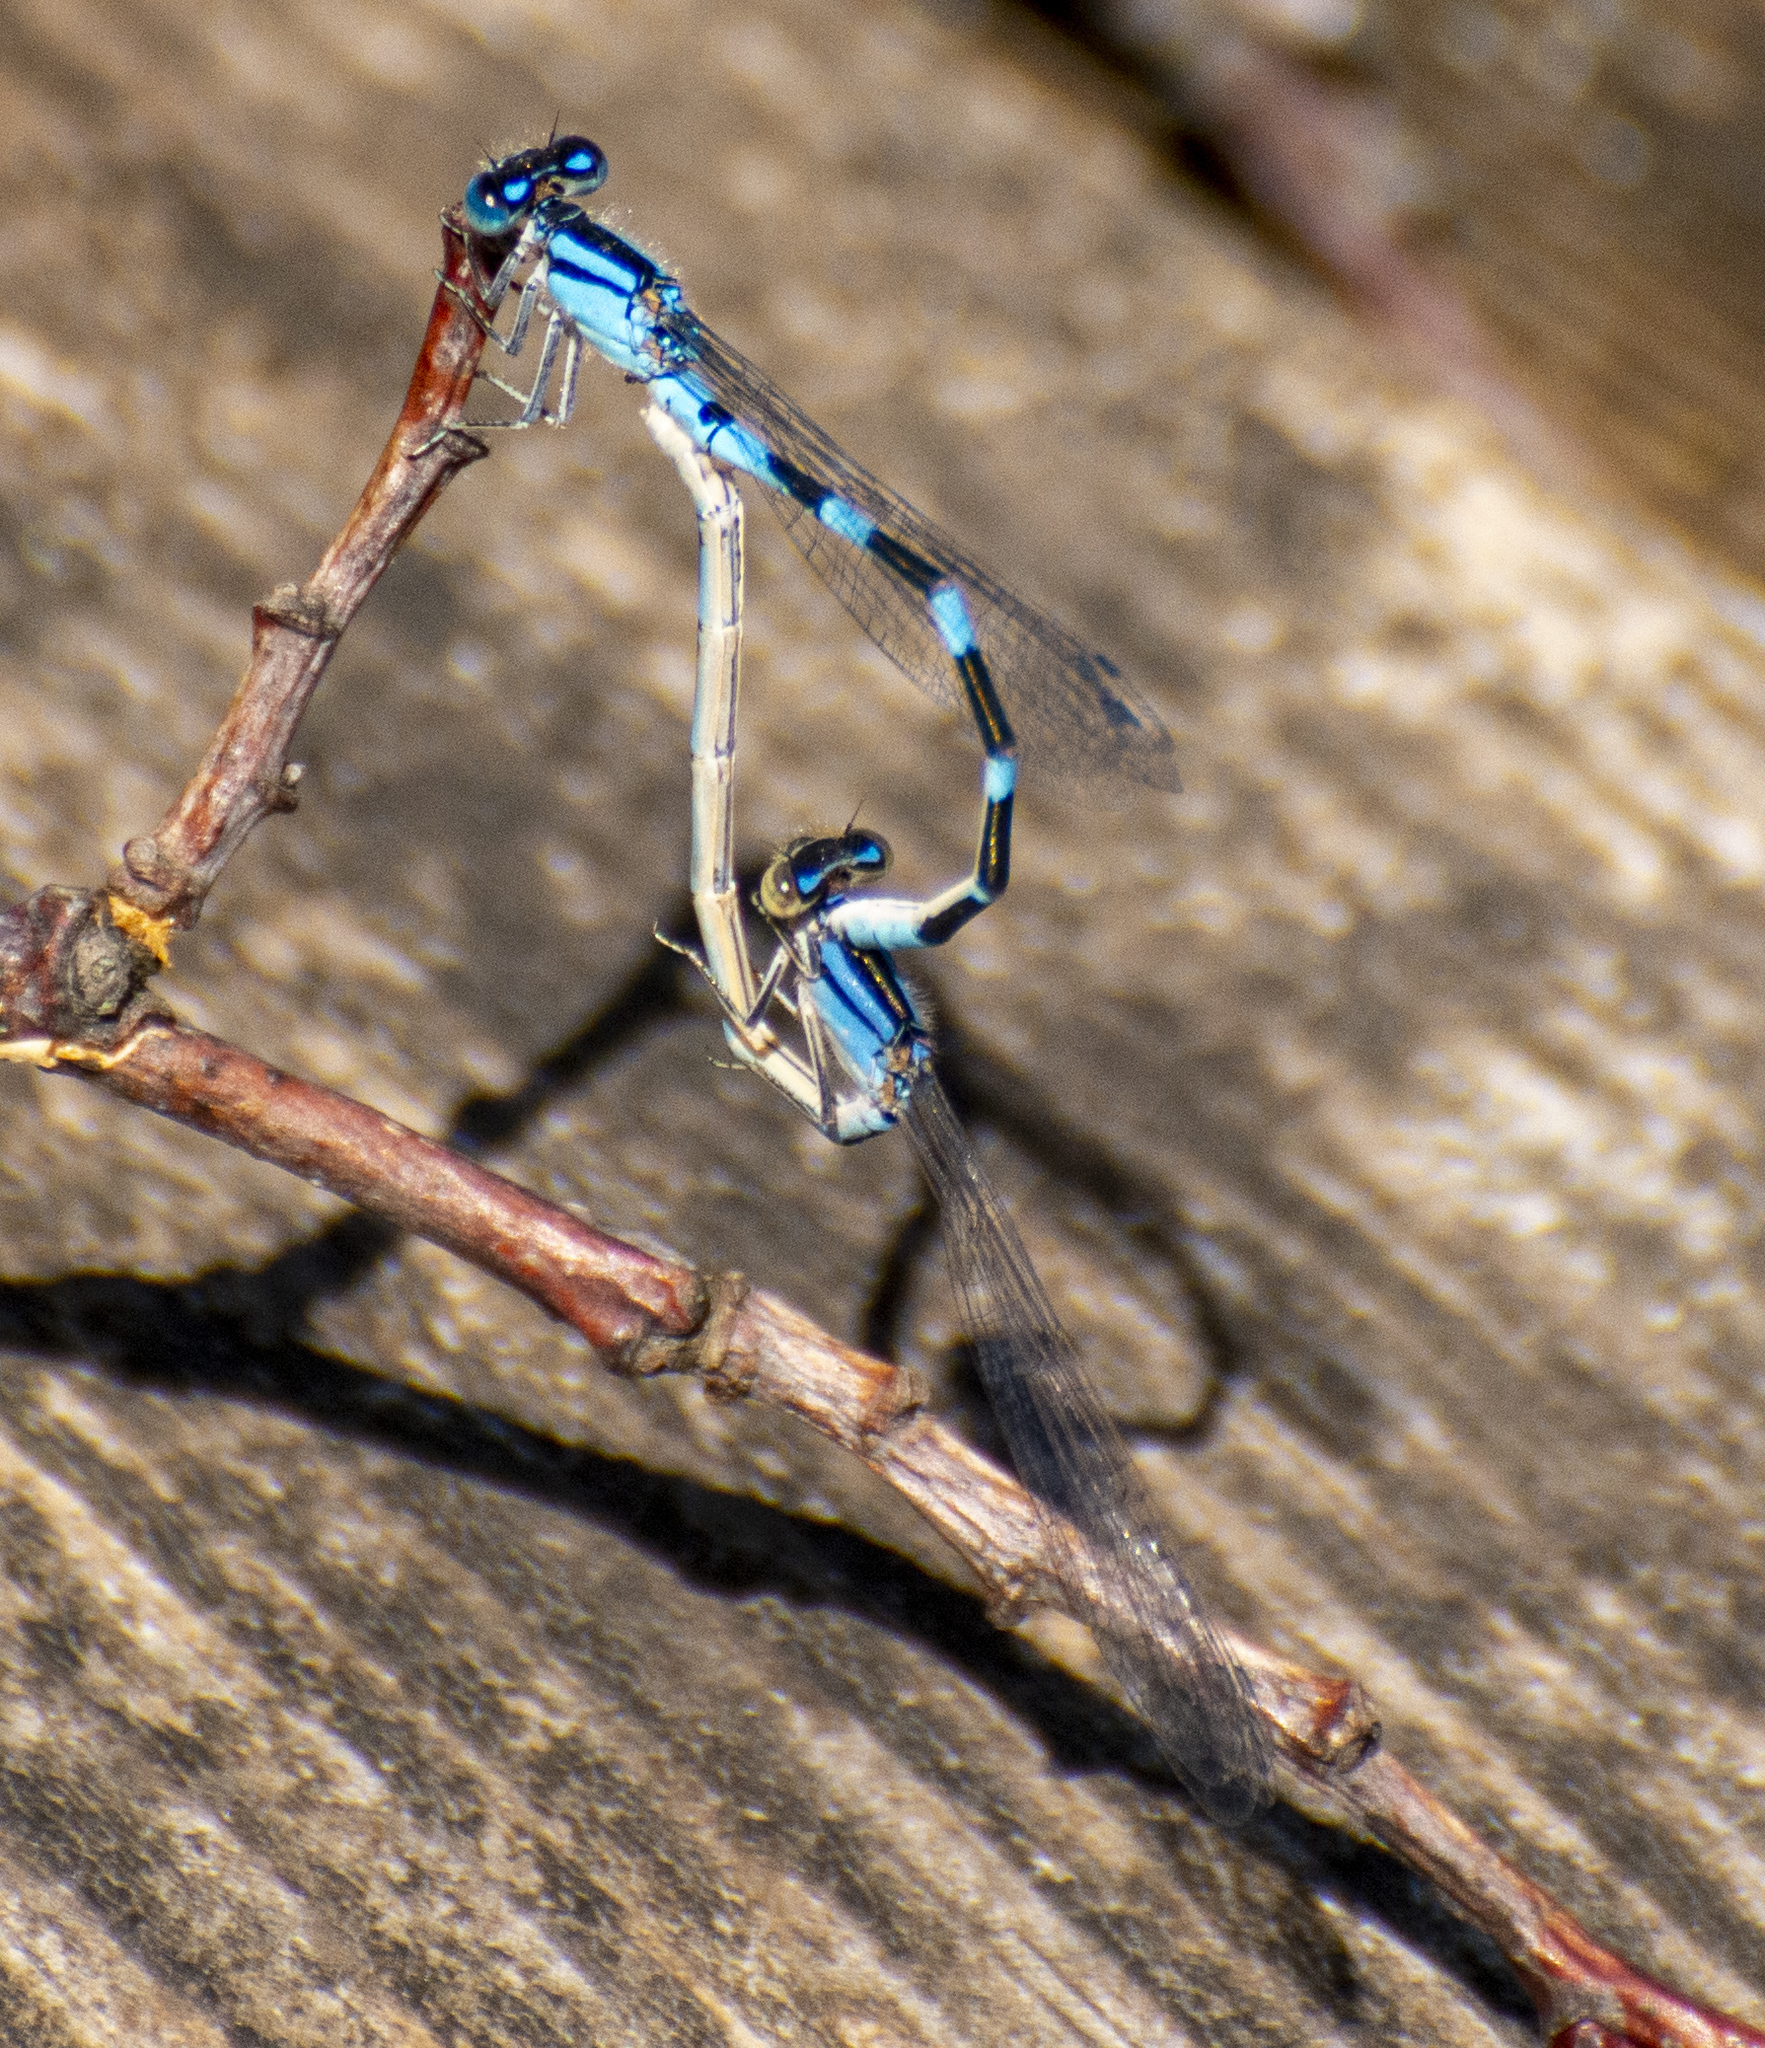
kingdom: Animalia
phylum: Arthropoda
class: Insecta
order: Odonata
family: Coenagrionidae
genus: Enallagma
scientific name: Enallagma carunculatum
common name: Tule bluet
